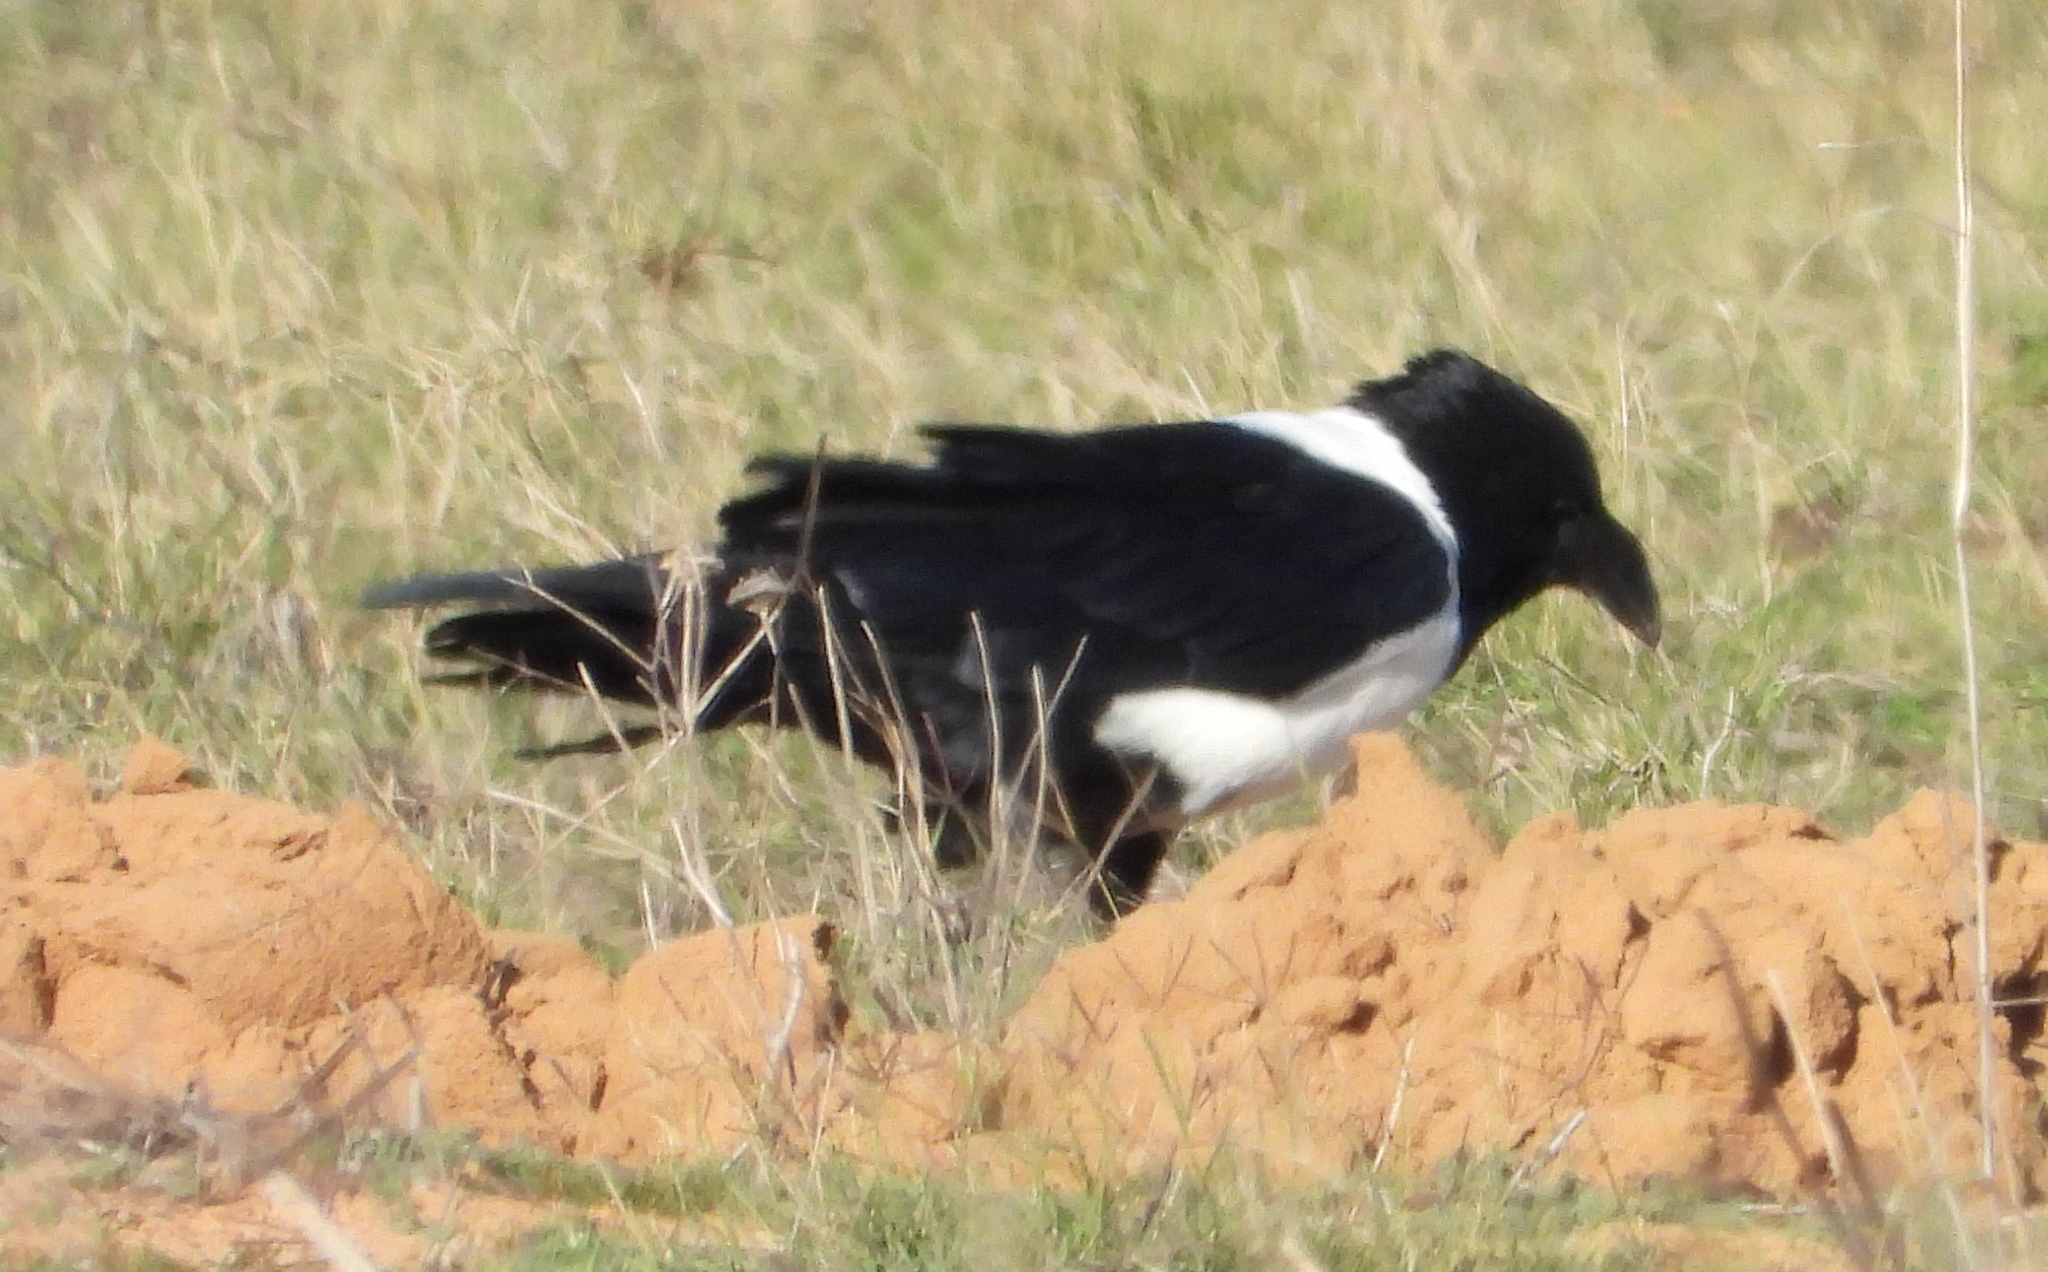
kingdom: Animalia
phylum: Chordata
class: Aves
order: Passeriformes
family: Corvidae
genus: Corvus
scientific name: Corvus albus
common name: Pied crow
